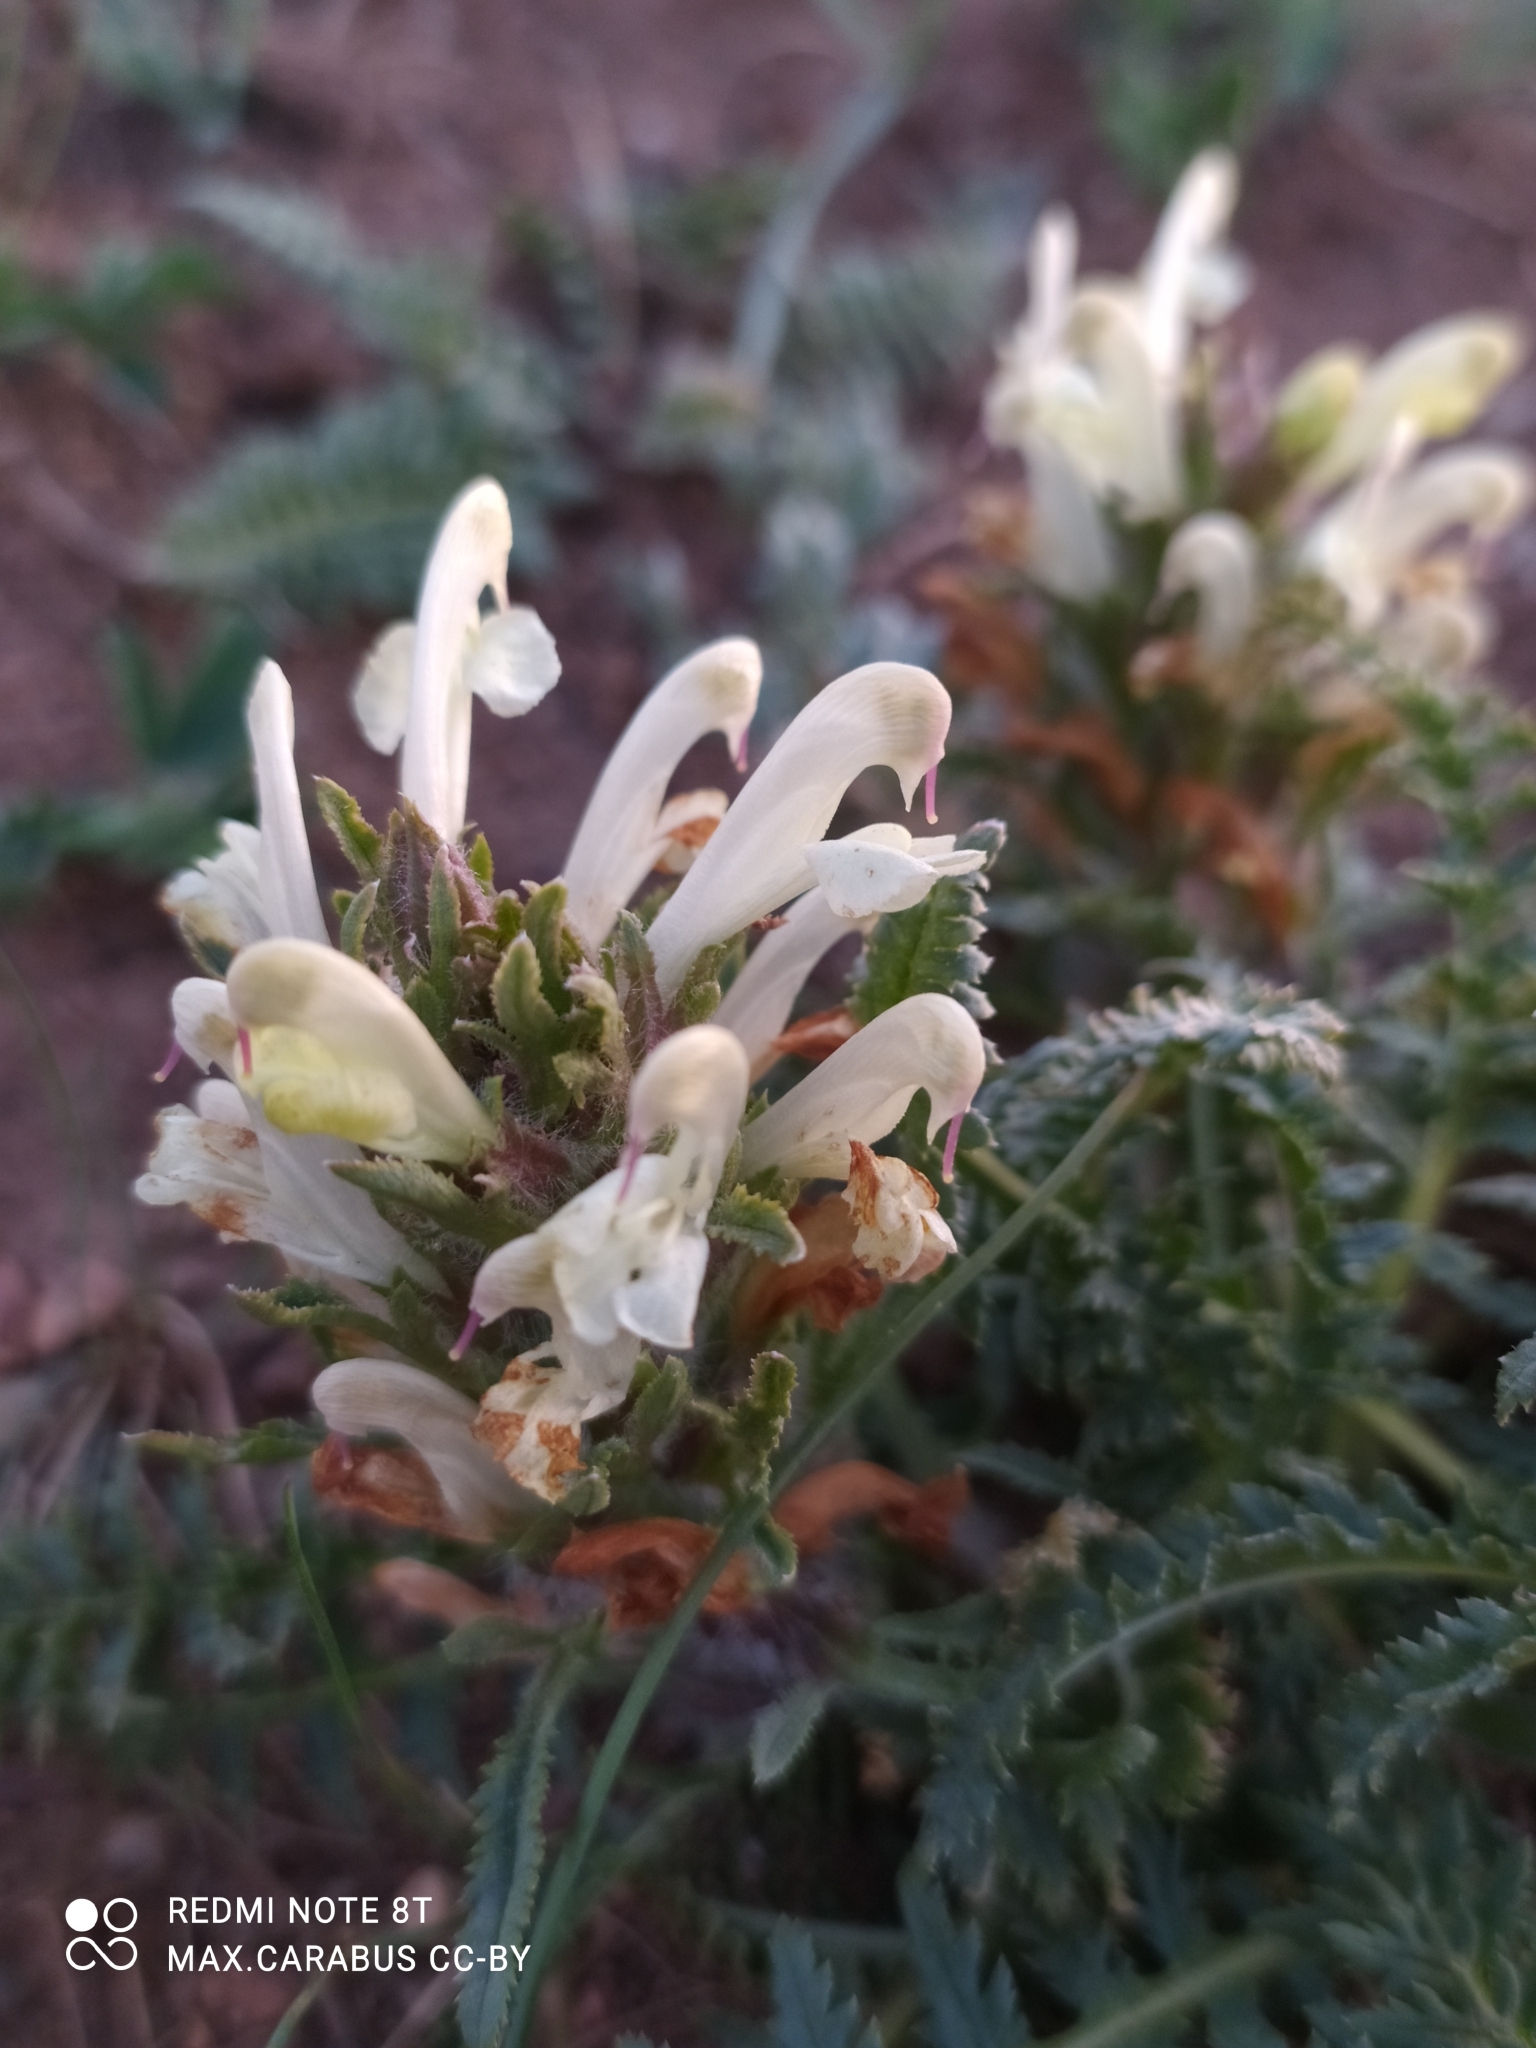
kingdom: Plantae
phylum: Tracheophyta
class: Magnoliopsida
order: Lamiales
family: Orobanchaceae
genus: Pedicularis
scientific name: Pedicularis physocalyx
